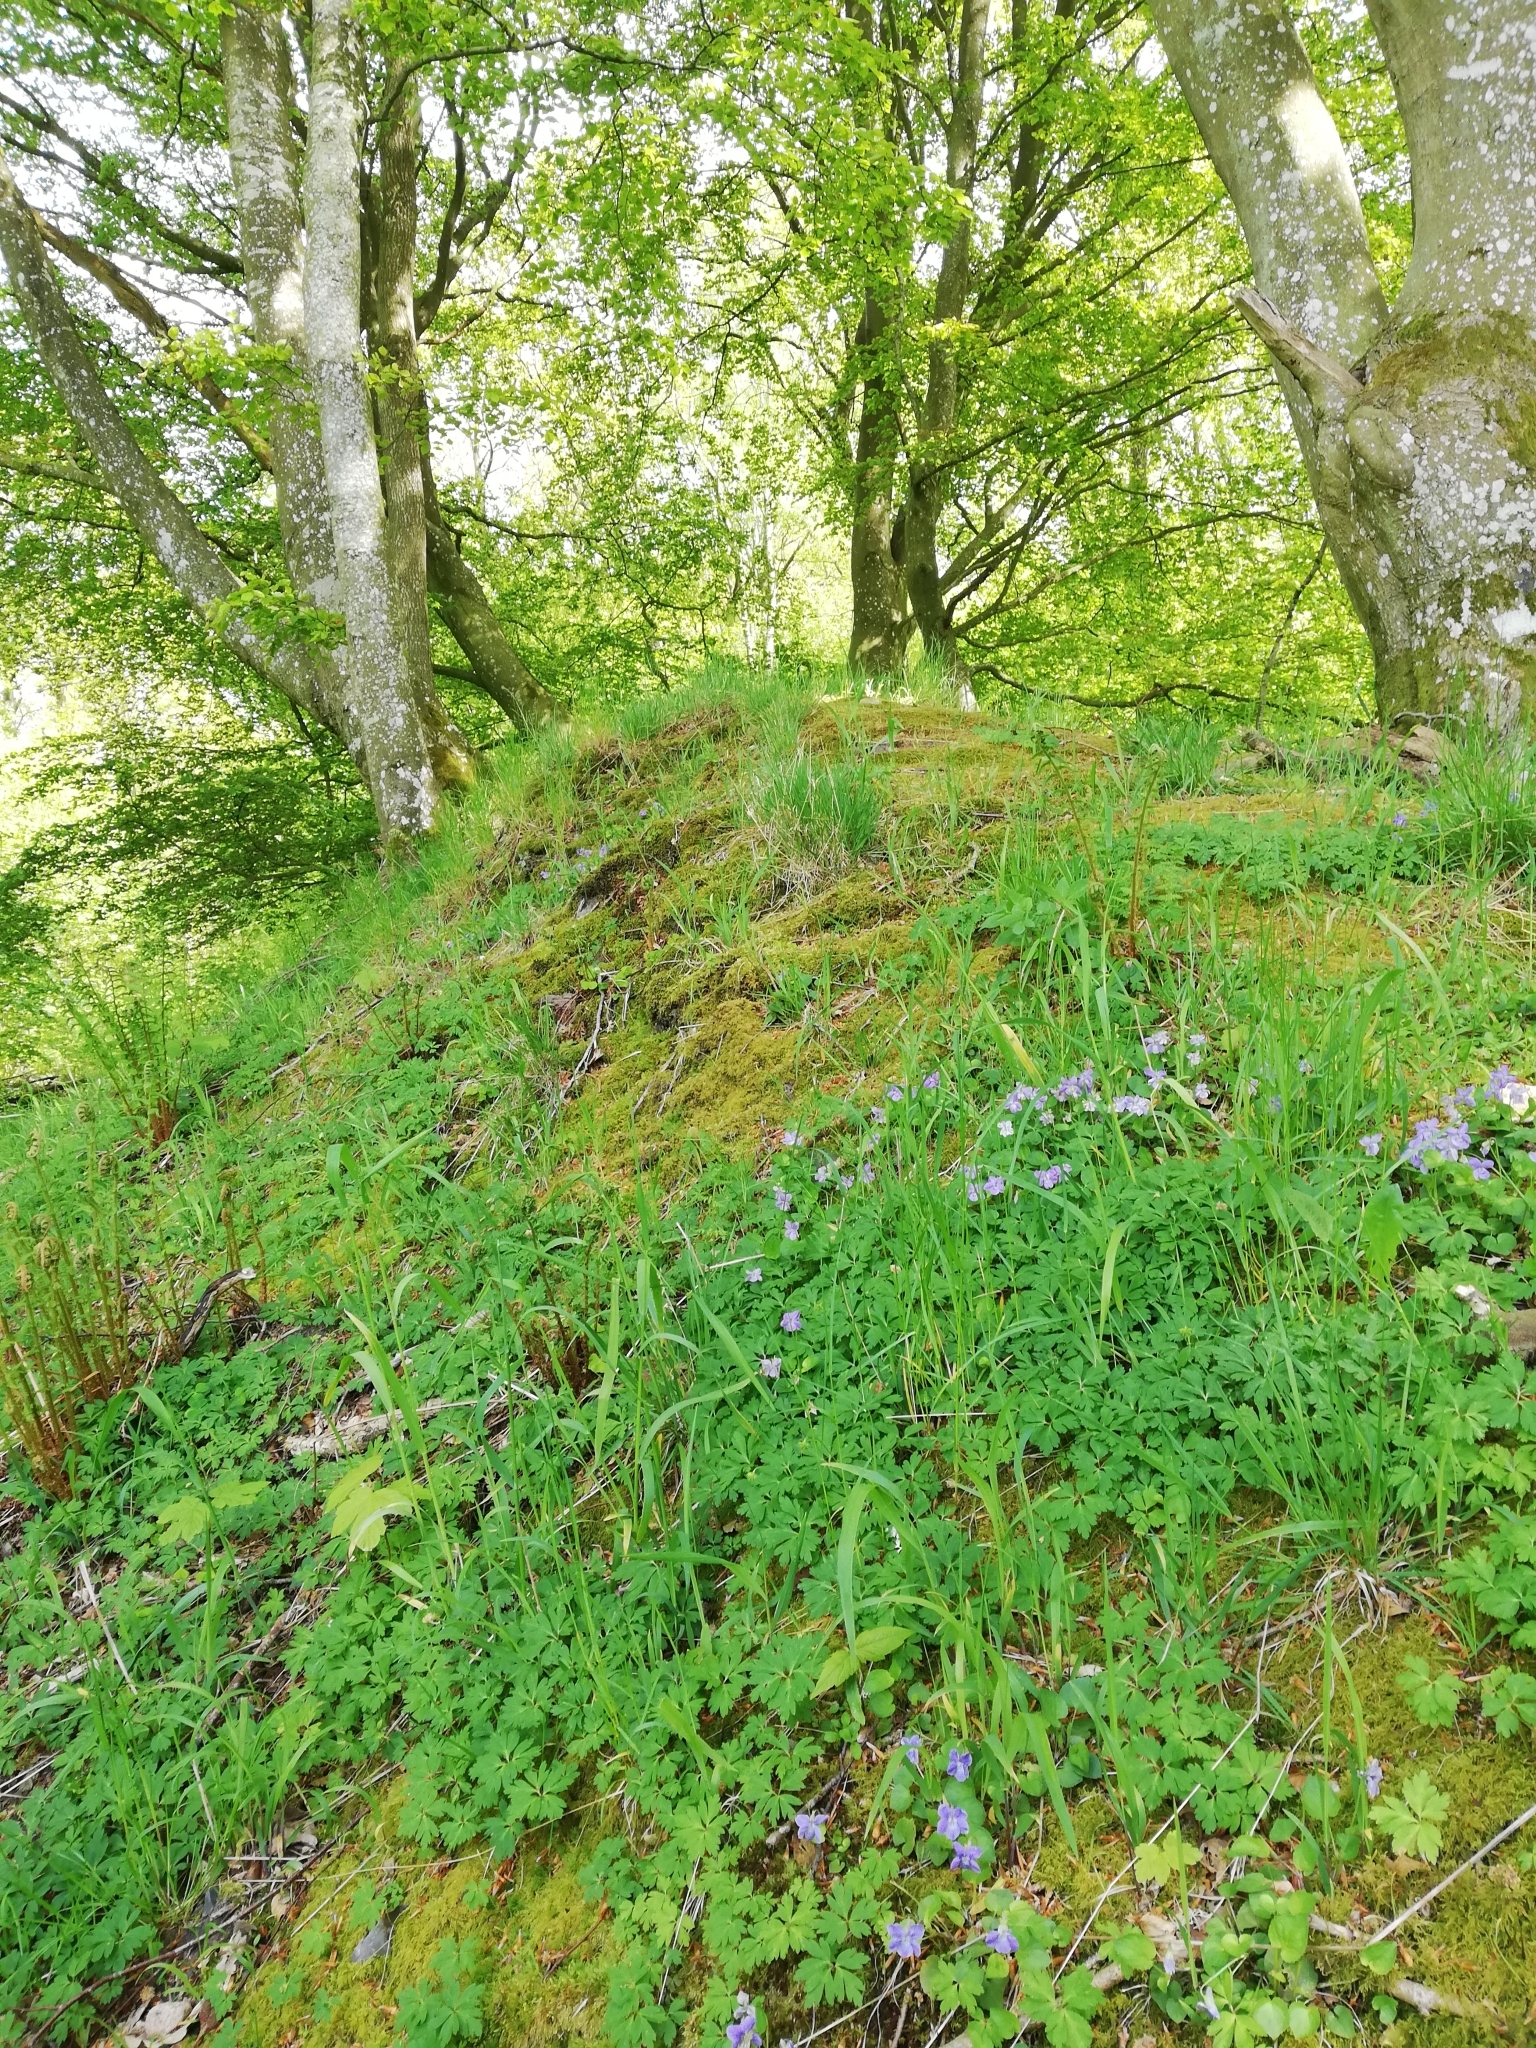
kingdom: Plantae
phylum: Tracheophyta
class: Magnoliopsida
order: Malpighiales
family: Violaceae
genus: Viola
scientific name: Viola riviniana
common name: Common dog-violet
